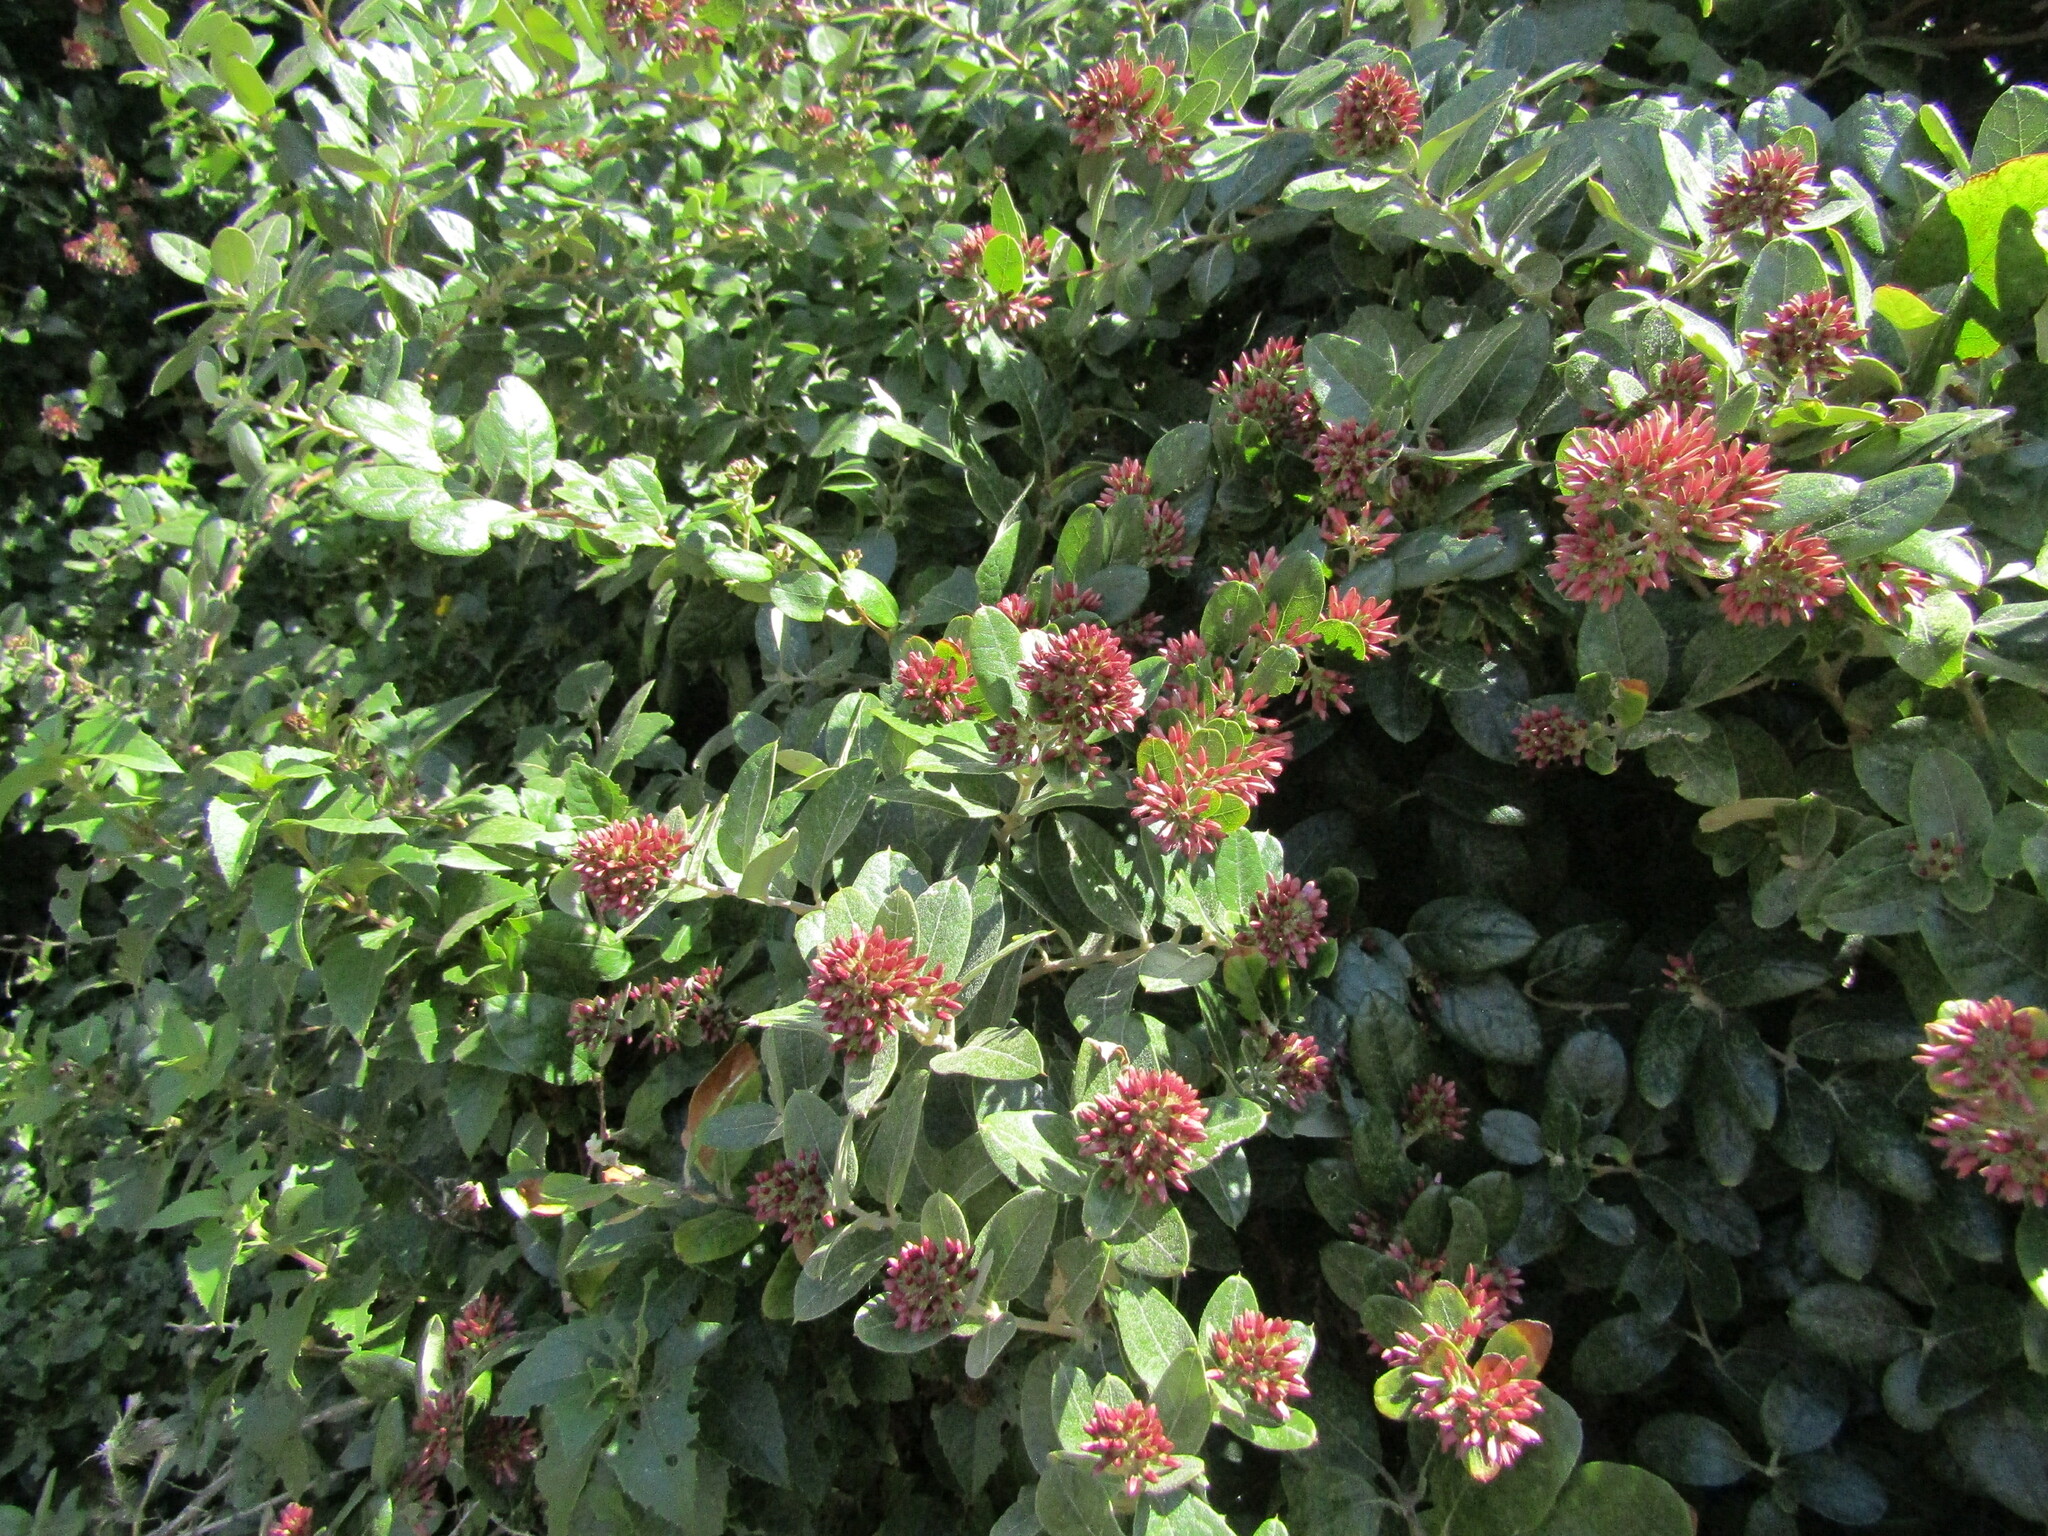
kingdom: Plantae
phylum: Tracheophyta
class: Magnoliopsida
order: Asterales
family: Asteraceae
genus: Proustia
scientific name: Proustia pyrifolia
